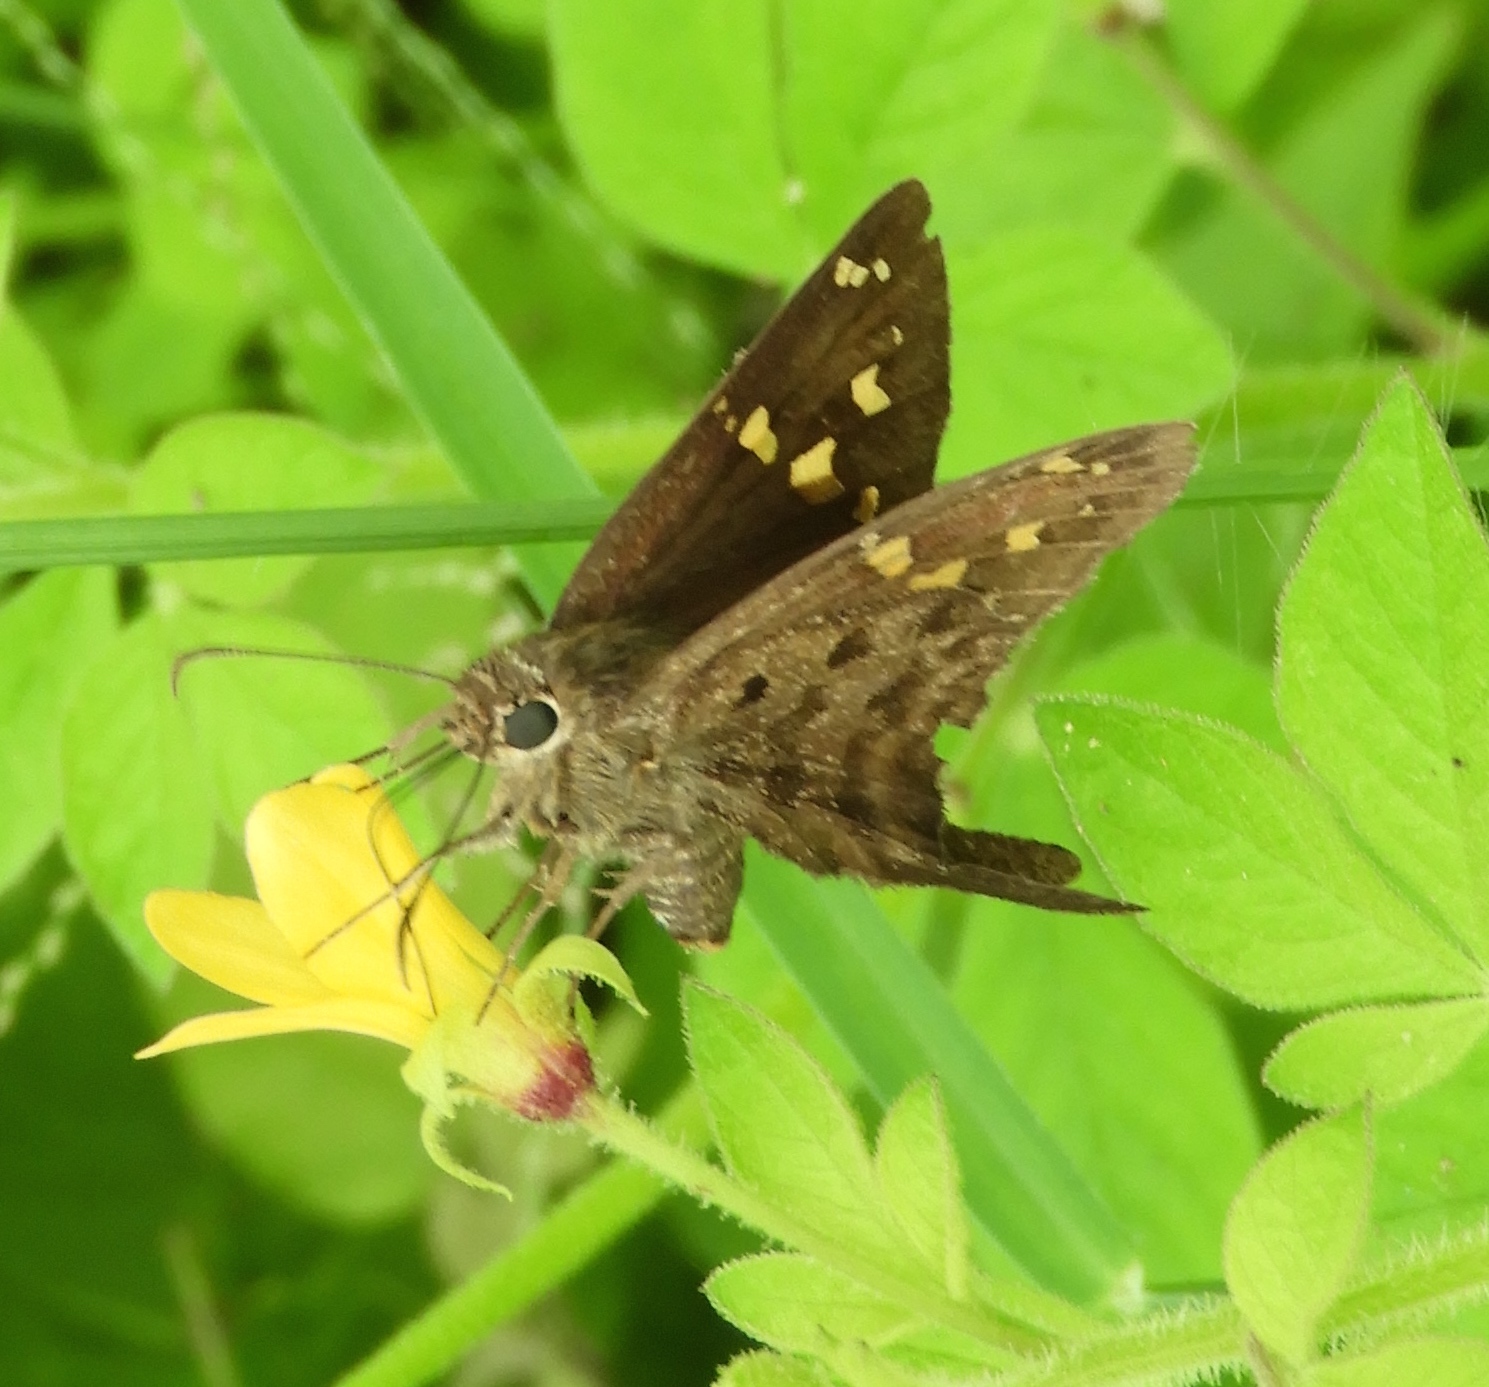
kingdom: Animalia
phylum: Arthropoda
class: Insecta
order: Lepidoptera
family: Hesperiidae
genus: Thorybes
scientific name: Thorybes
